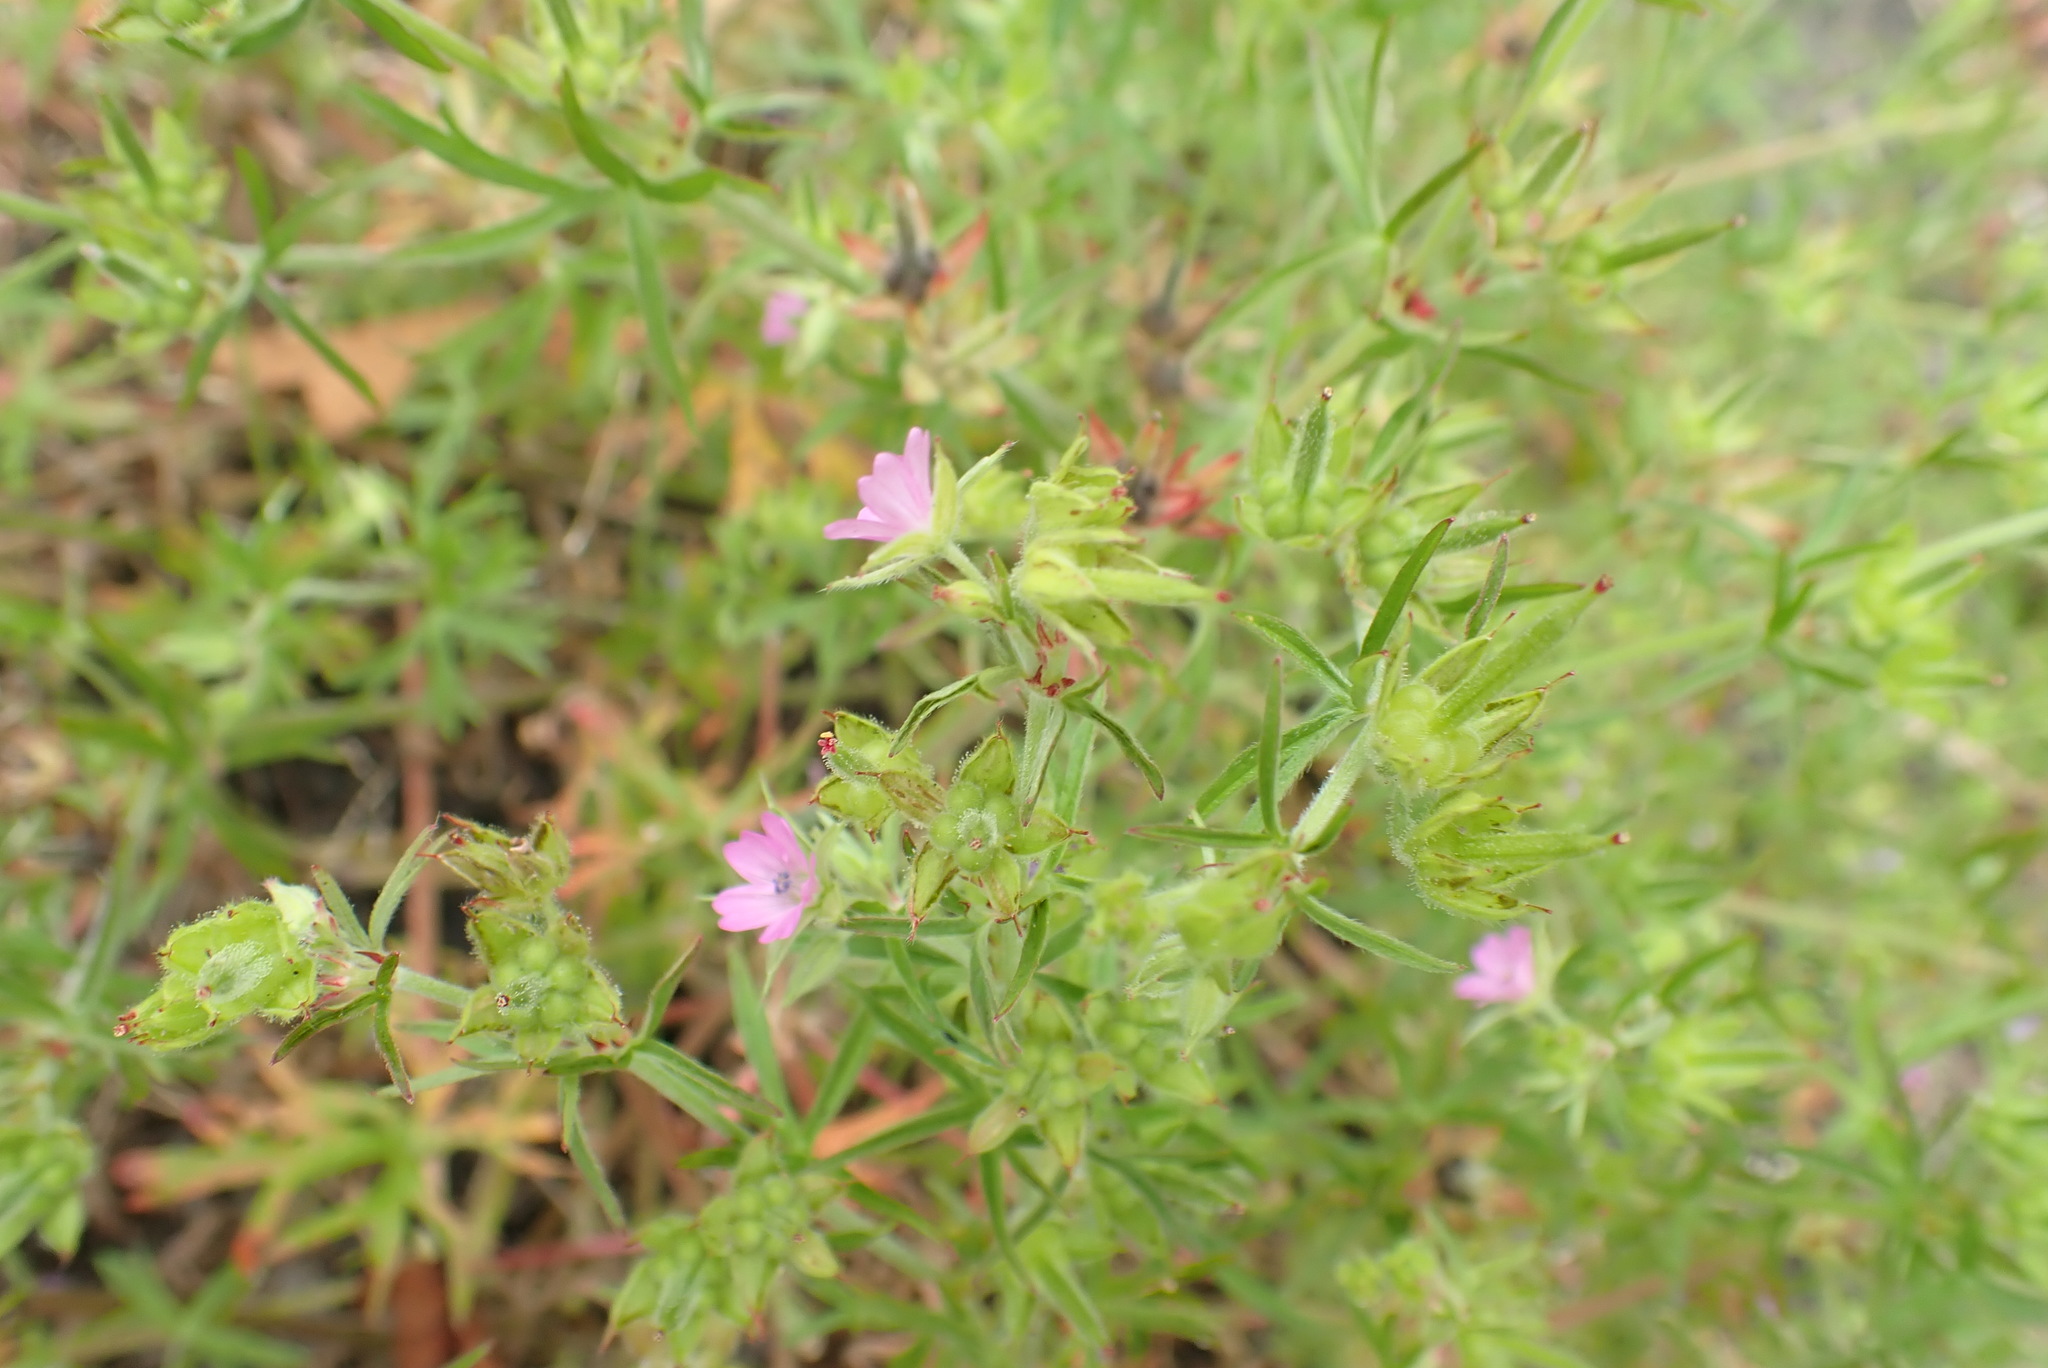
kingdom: Plantae
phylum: Tracheophyta
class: Magnoliopsida
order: Geraniales
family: Geraniaceae
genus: Geranium
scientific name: Geranium dissectum
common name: Cut-leaved crane's-bill
